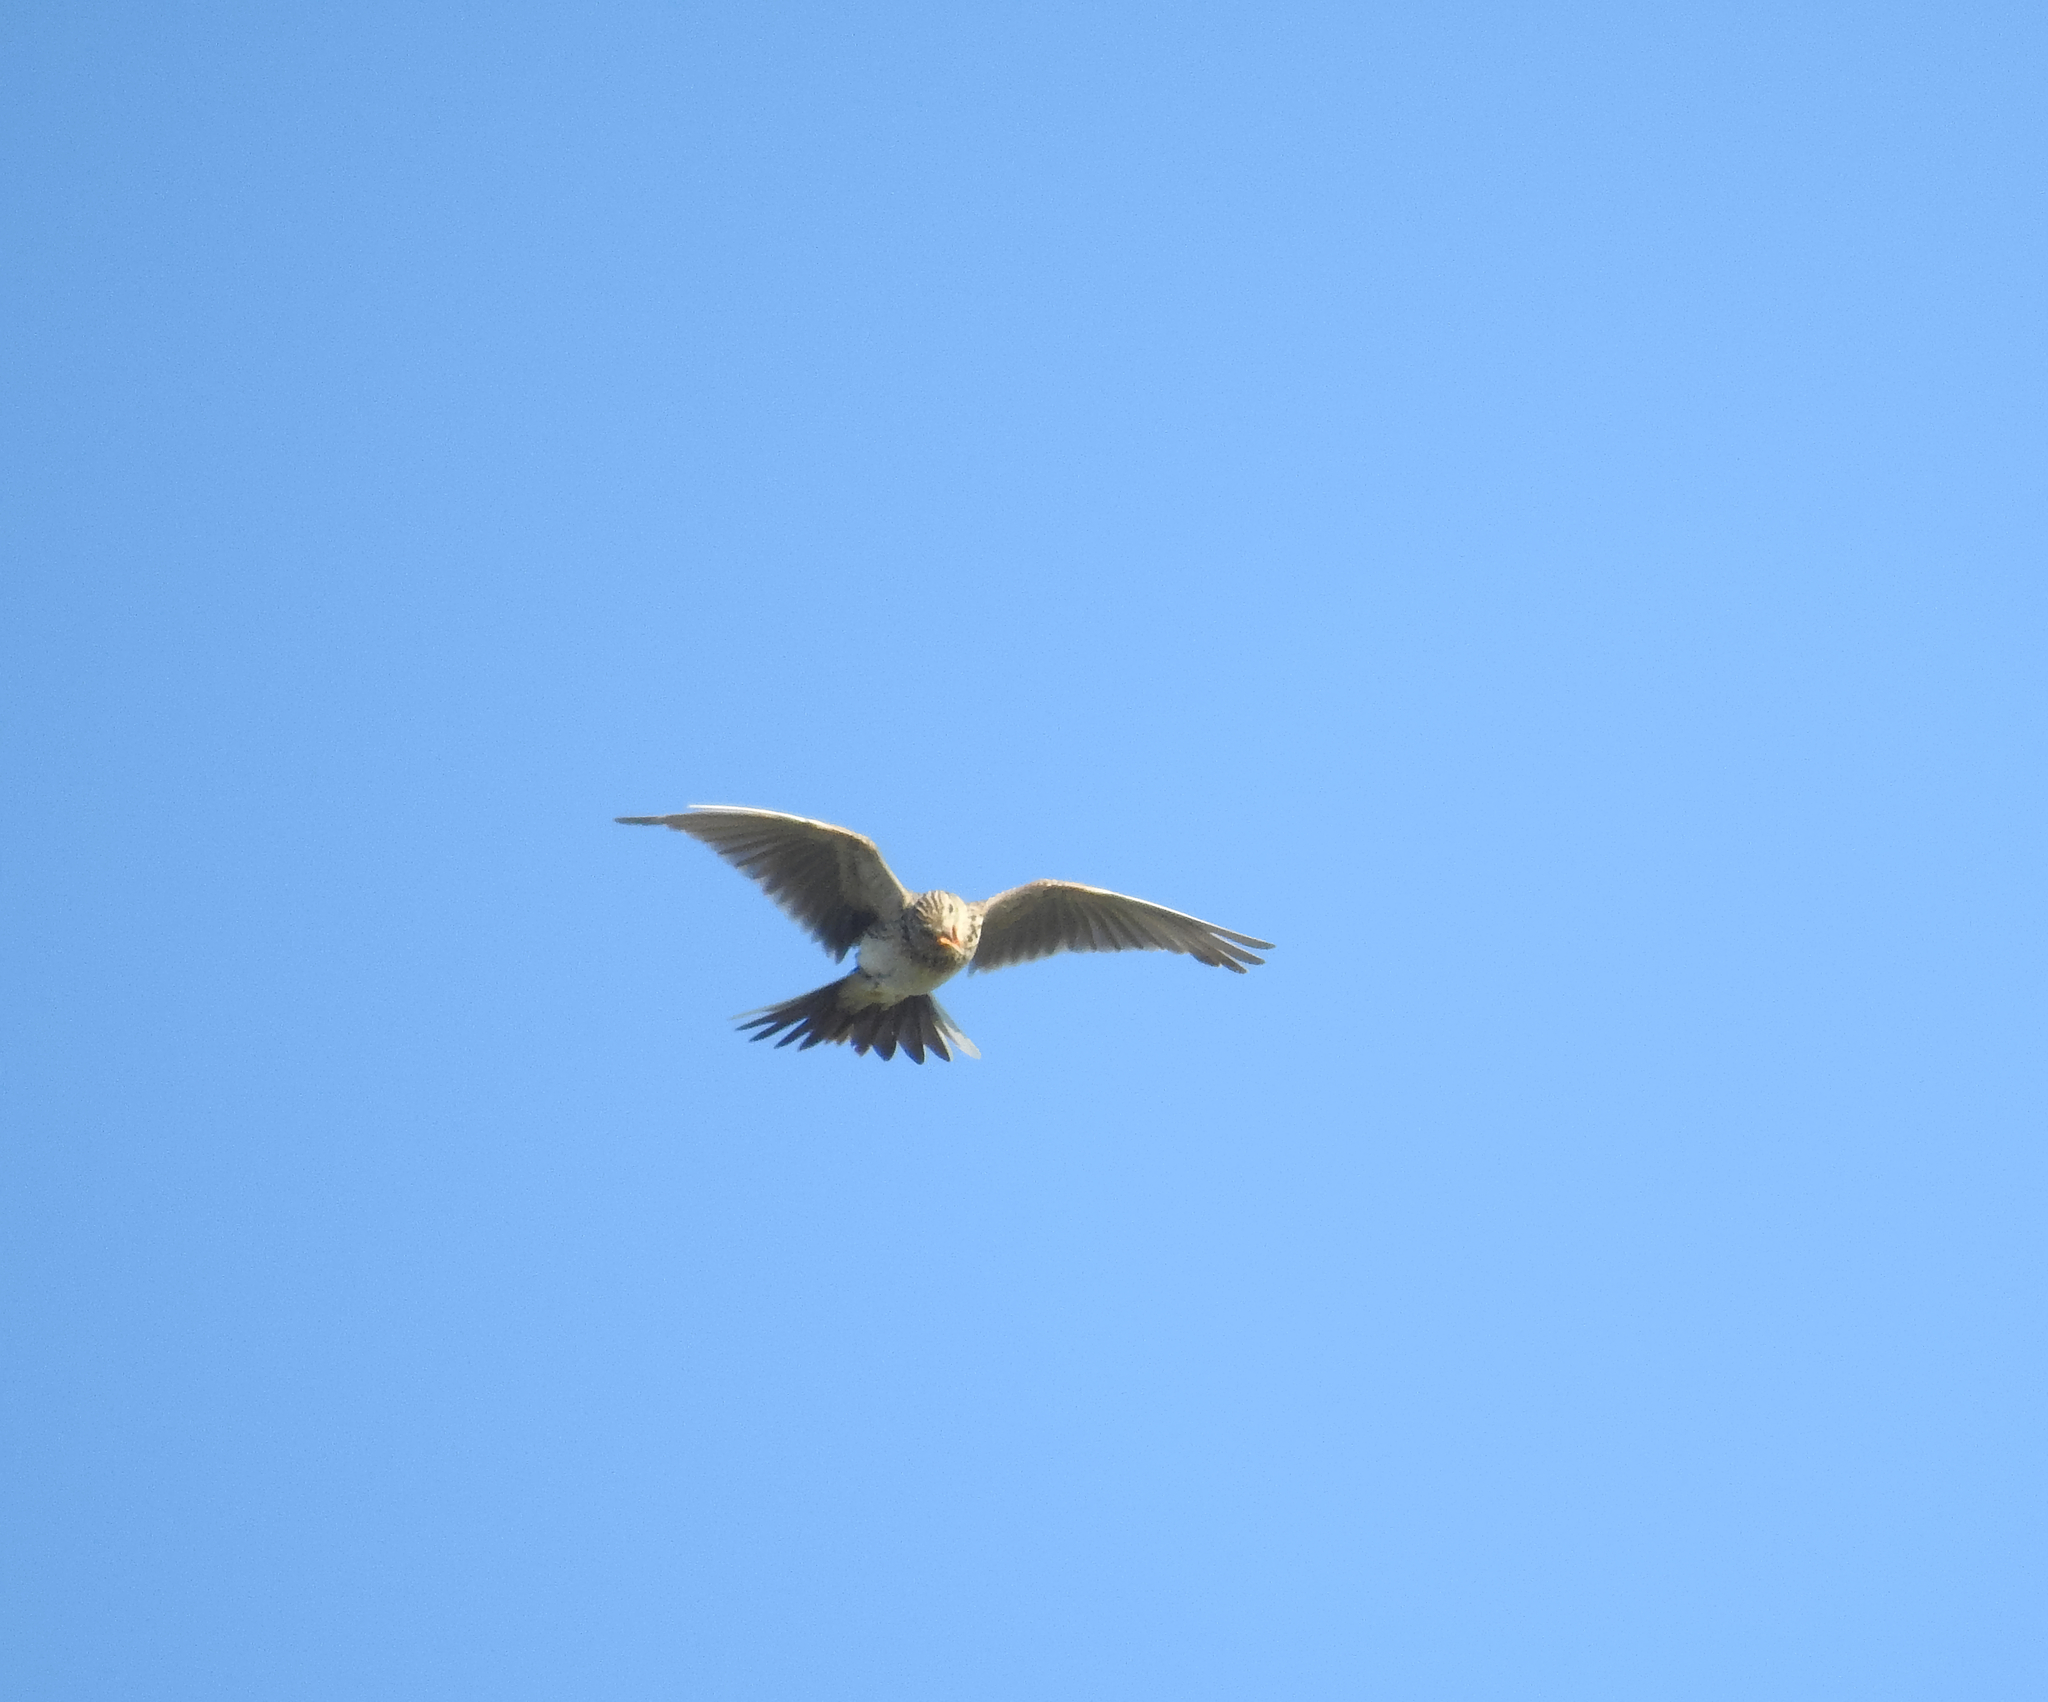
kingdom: Animalia
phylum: Chordata
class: Aves
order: Passeriformes
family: Alaudidae
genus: Alauda
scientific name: Alauda arvensis
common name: Eurasian skylark
